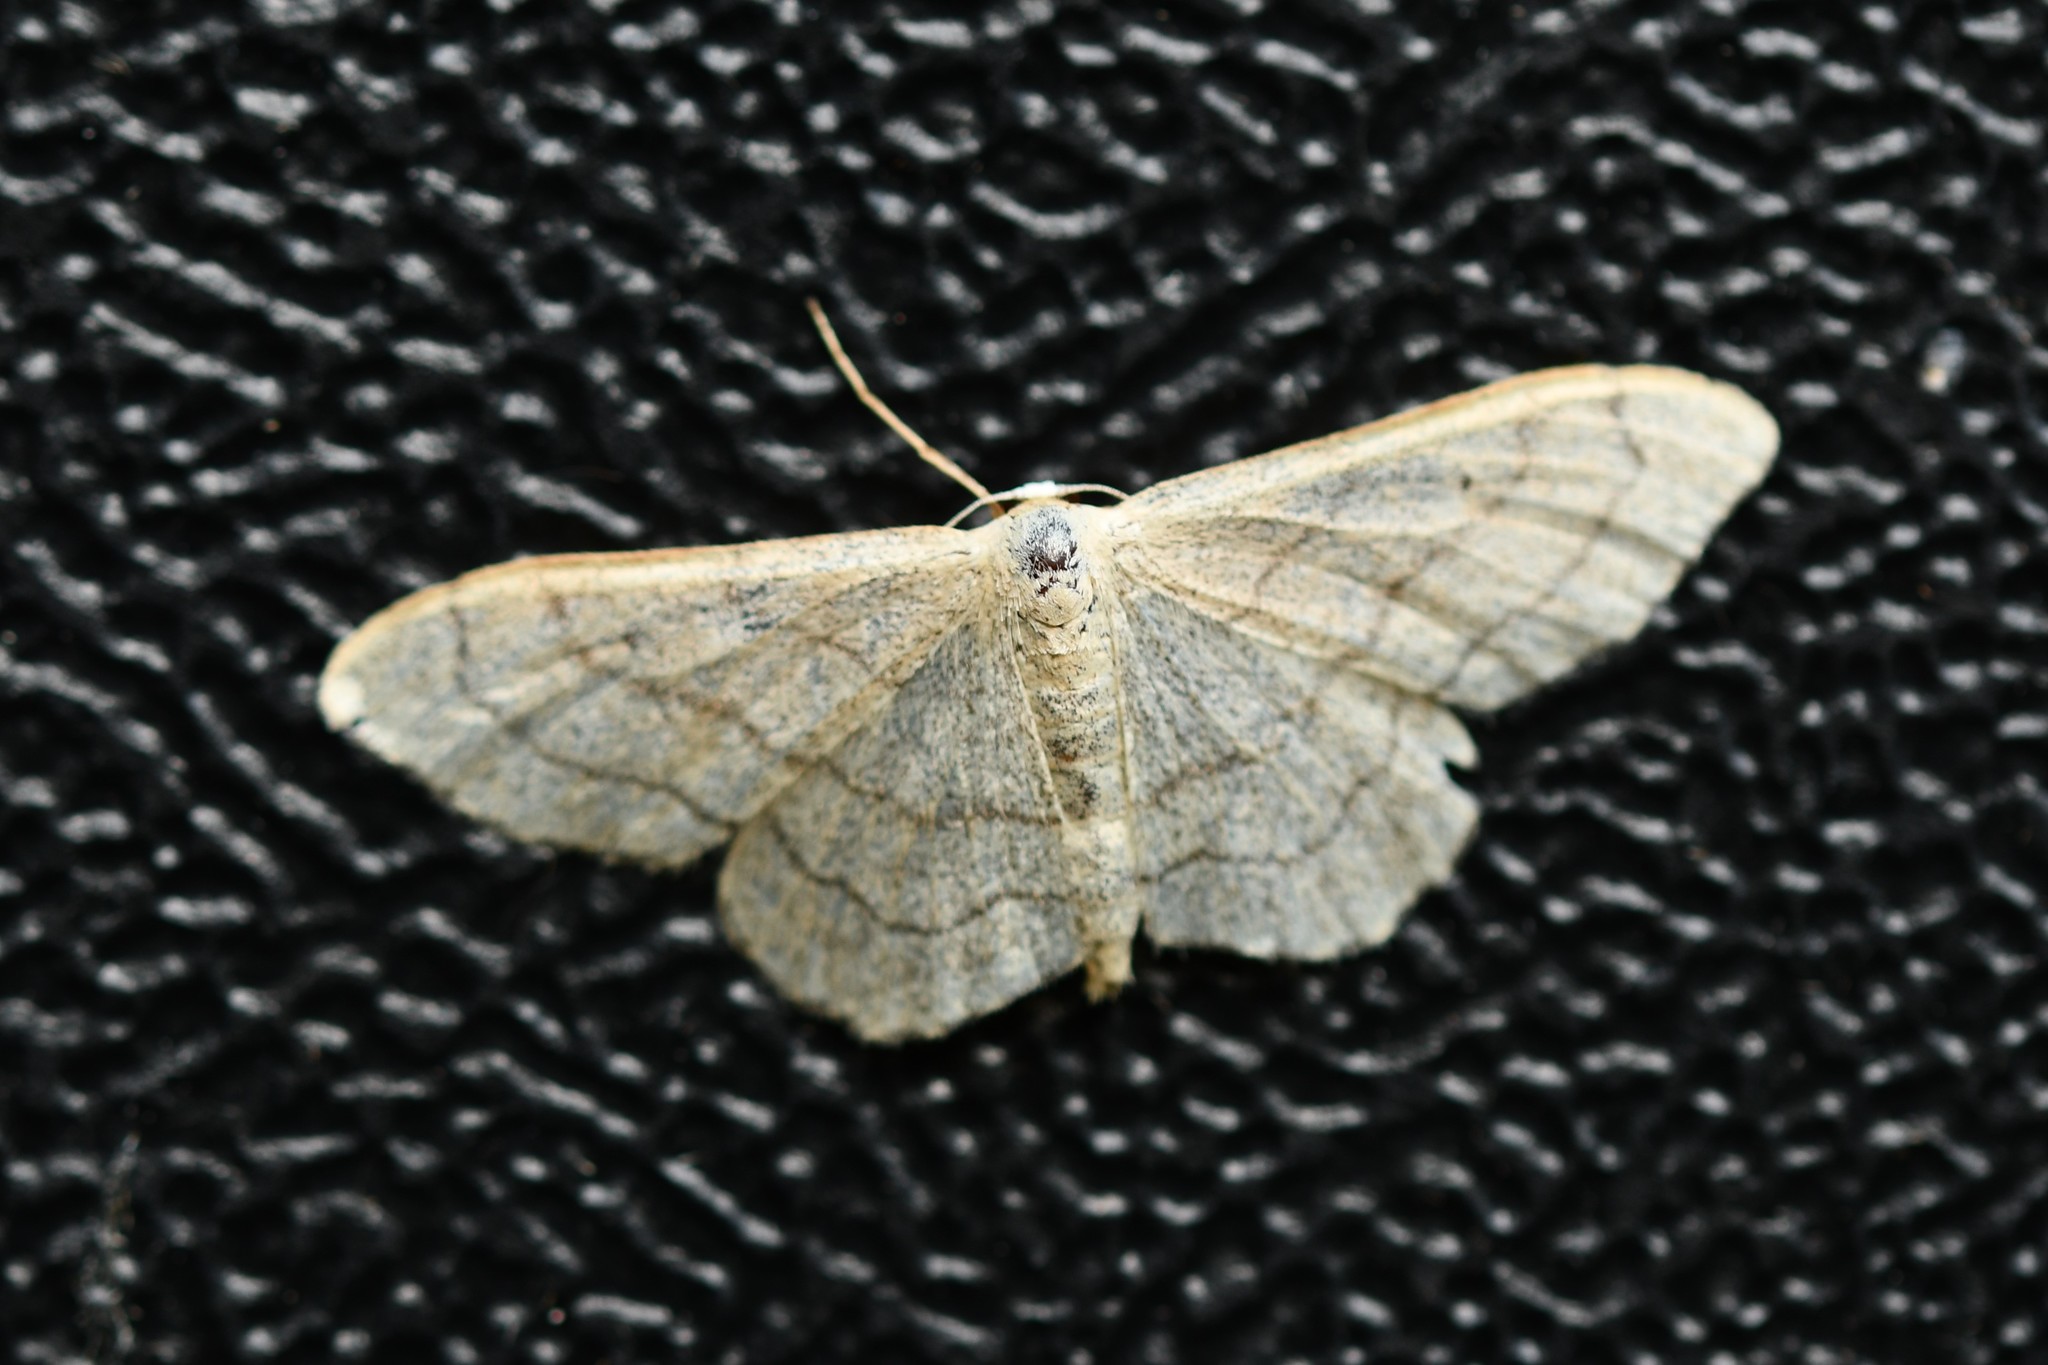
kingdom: Animalia
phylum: Arthropoda
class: Insecta
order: Lepidoptera
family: Geometridae
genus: Idaea
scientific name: Idaea aversata
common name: Riband wave
